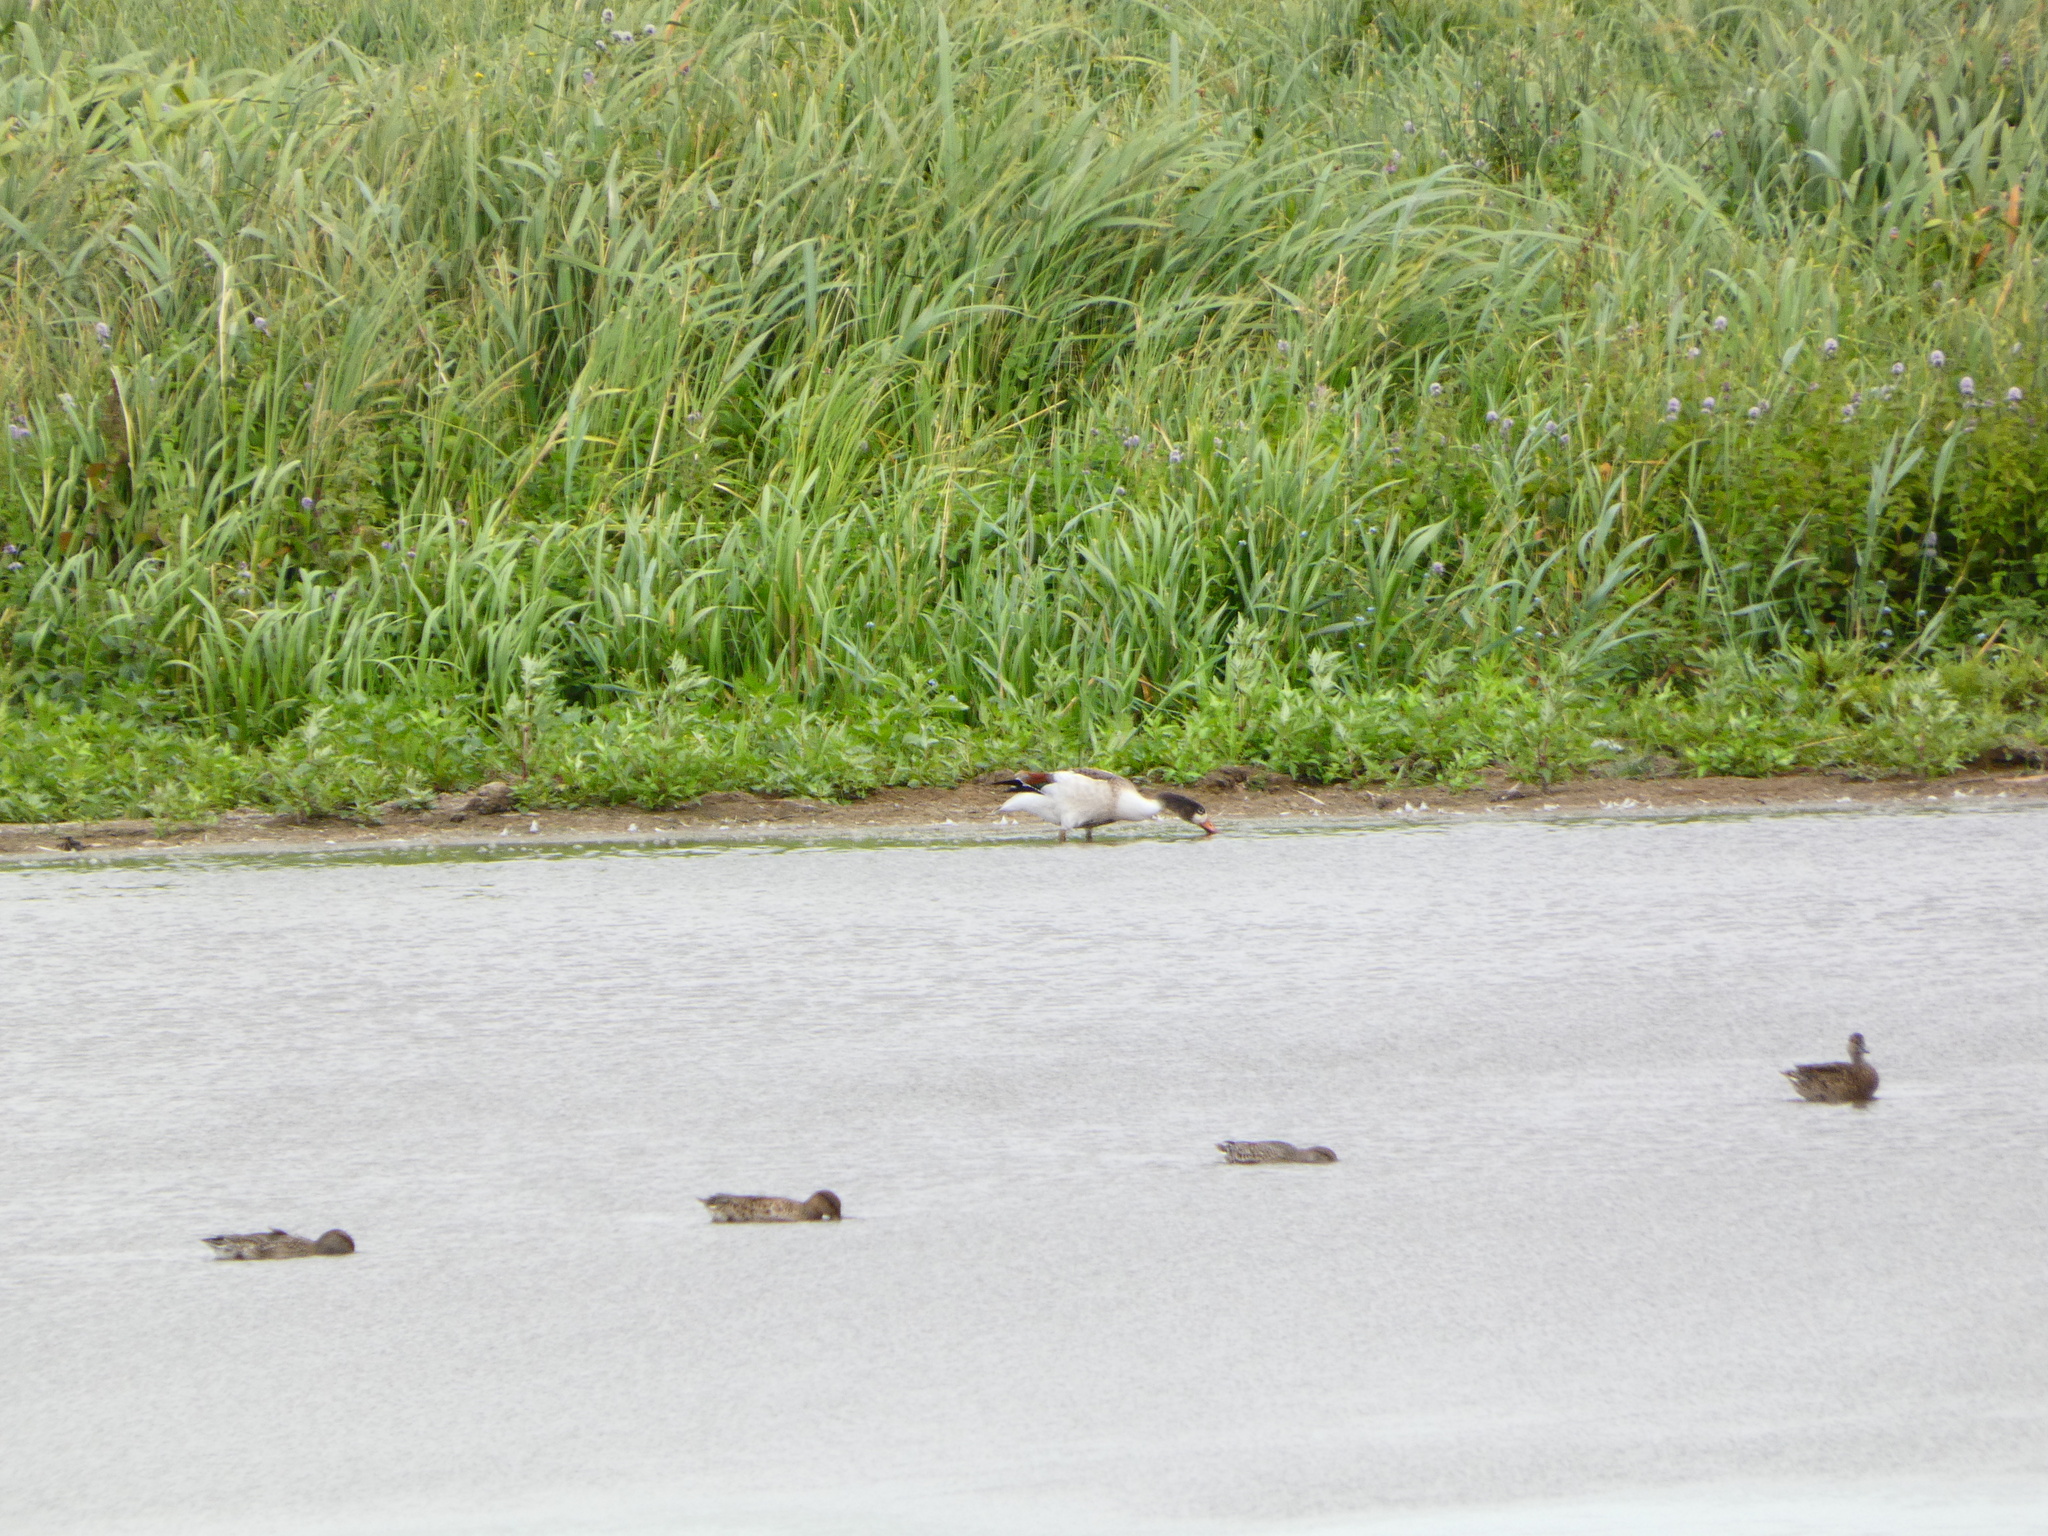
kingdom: Animalia
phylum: Chordata
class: Aves
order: Anseriformes
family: Anatidae
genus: Tadorna
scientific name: Tadorna tadorna
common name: Common shelduck
